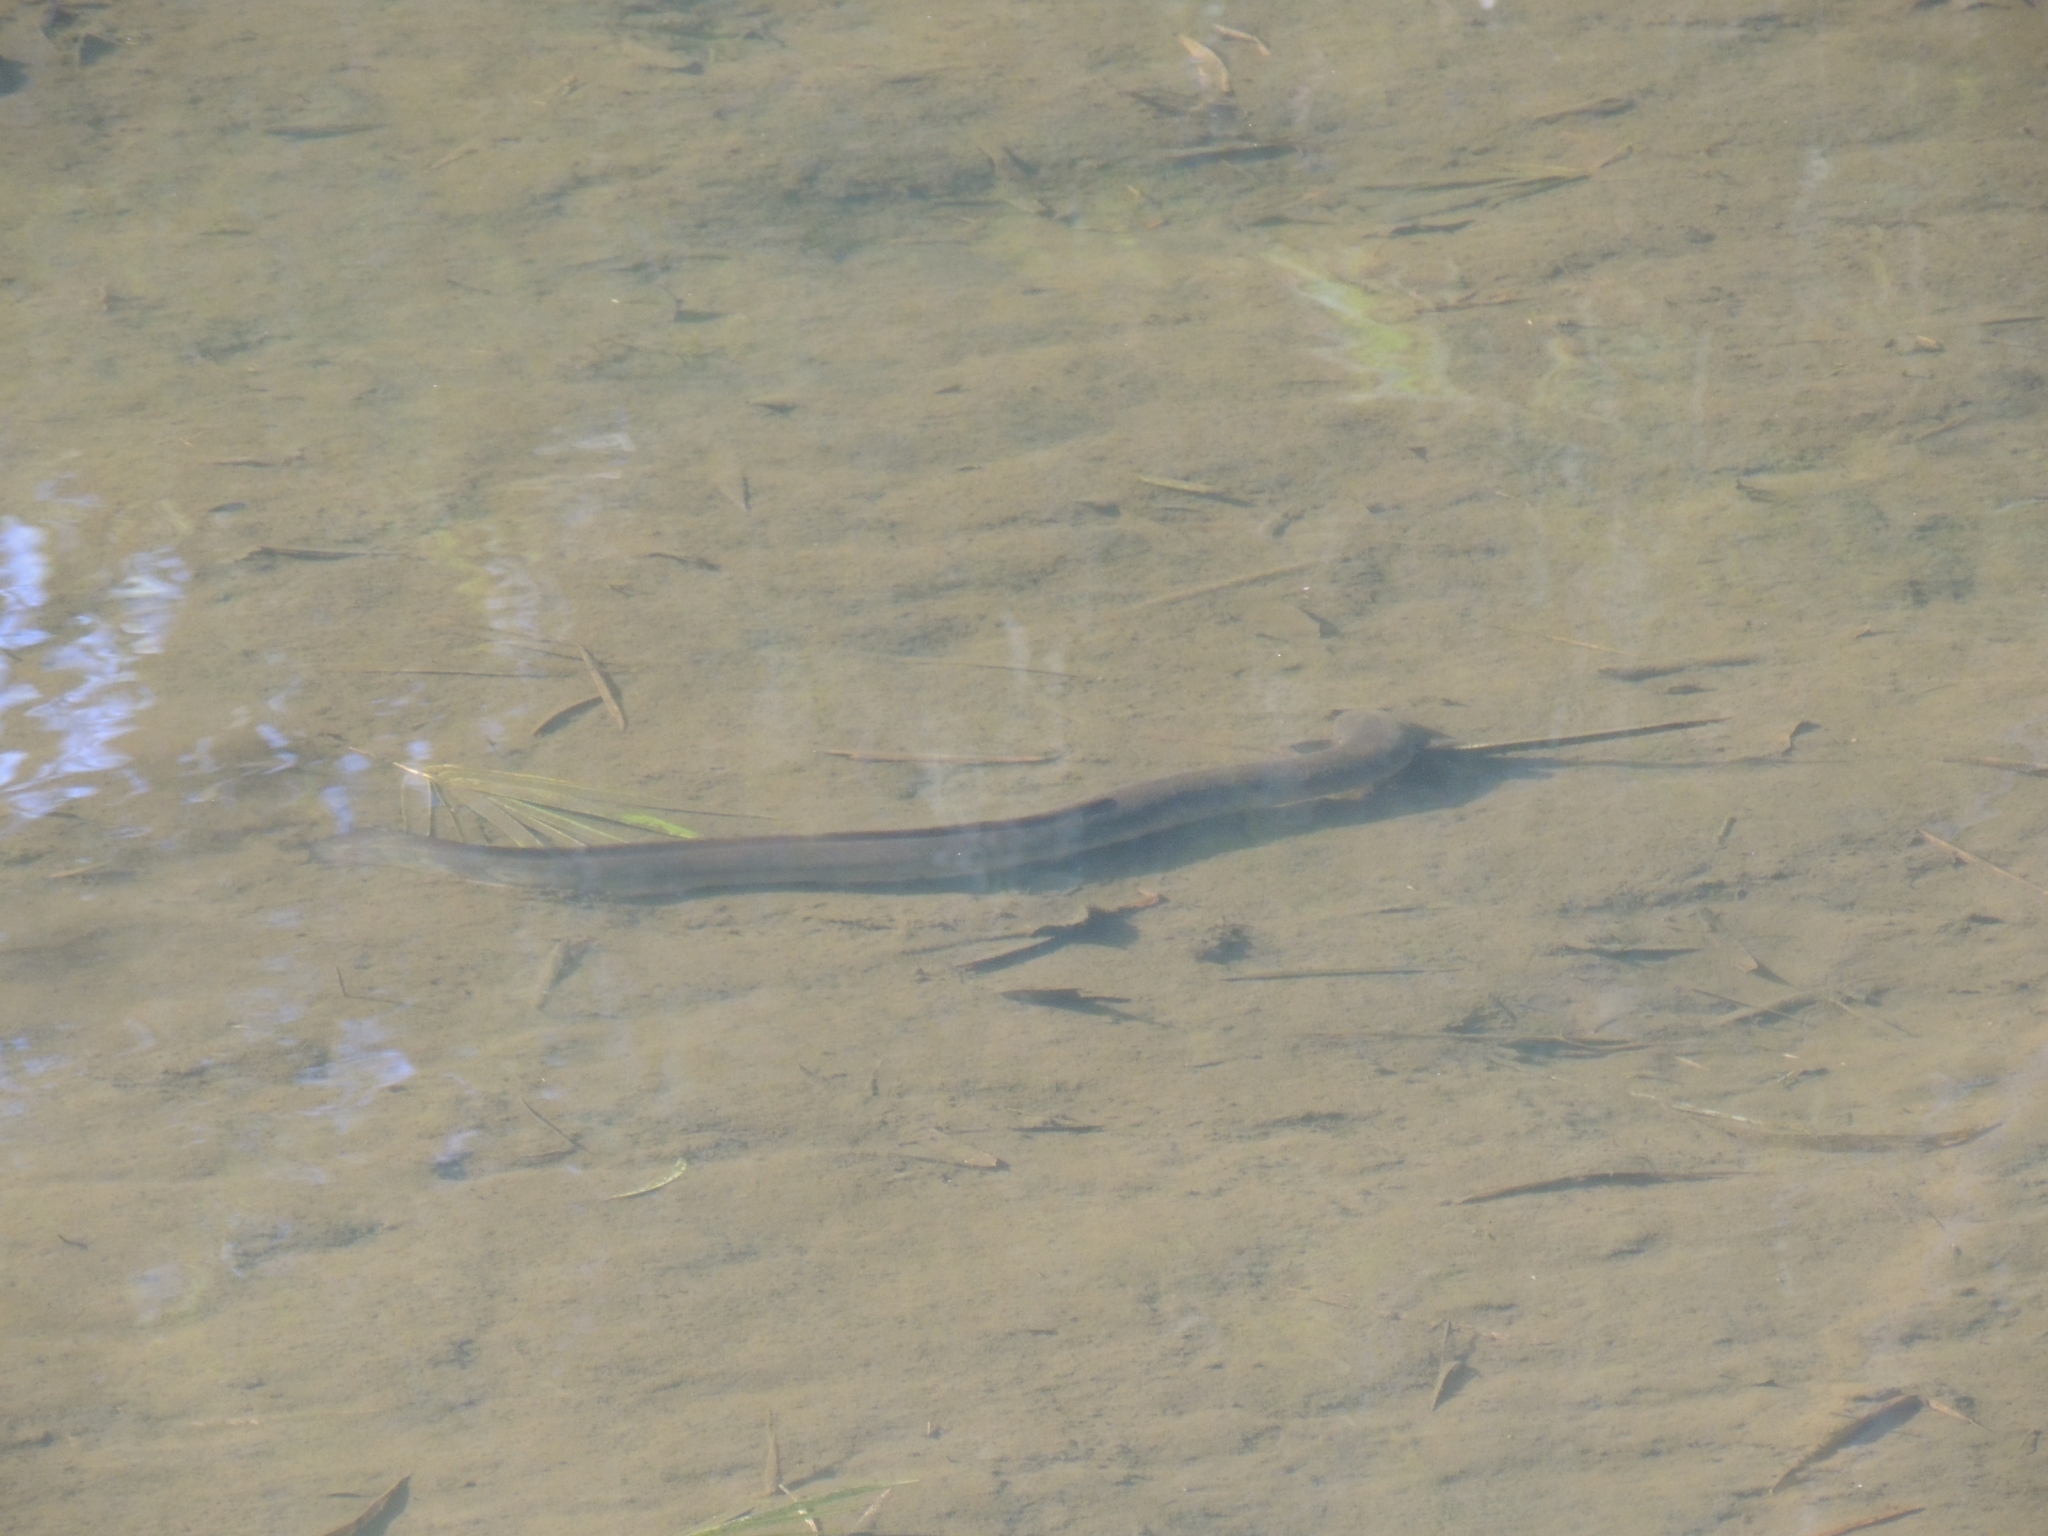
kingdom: Animalia
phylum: Chordata
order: Anguilliformes
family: Anguillidae
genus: Anguilla
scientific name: Anguilla australis
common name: Shortfin eel
